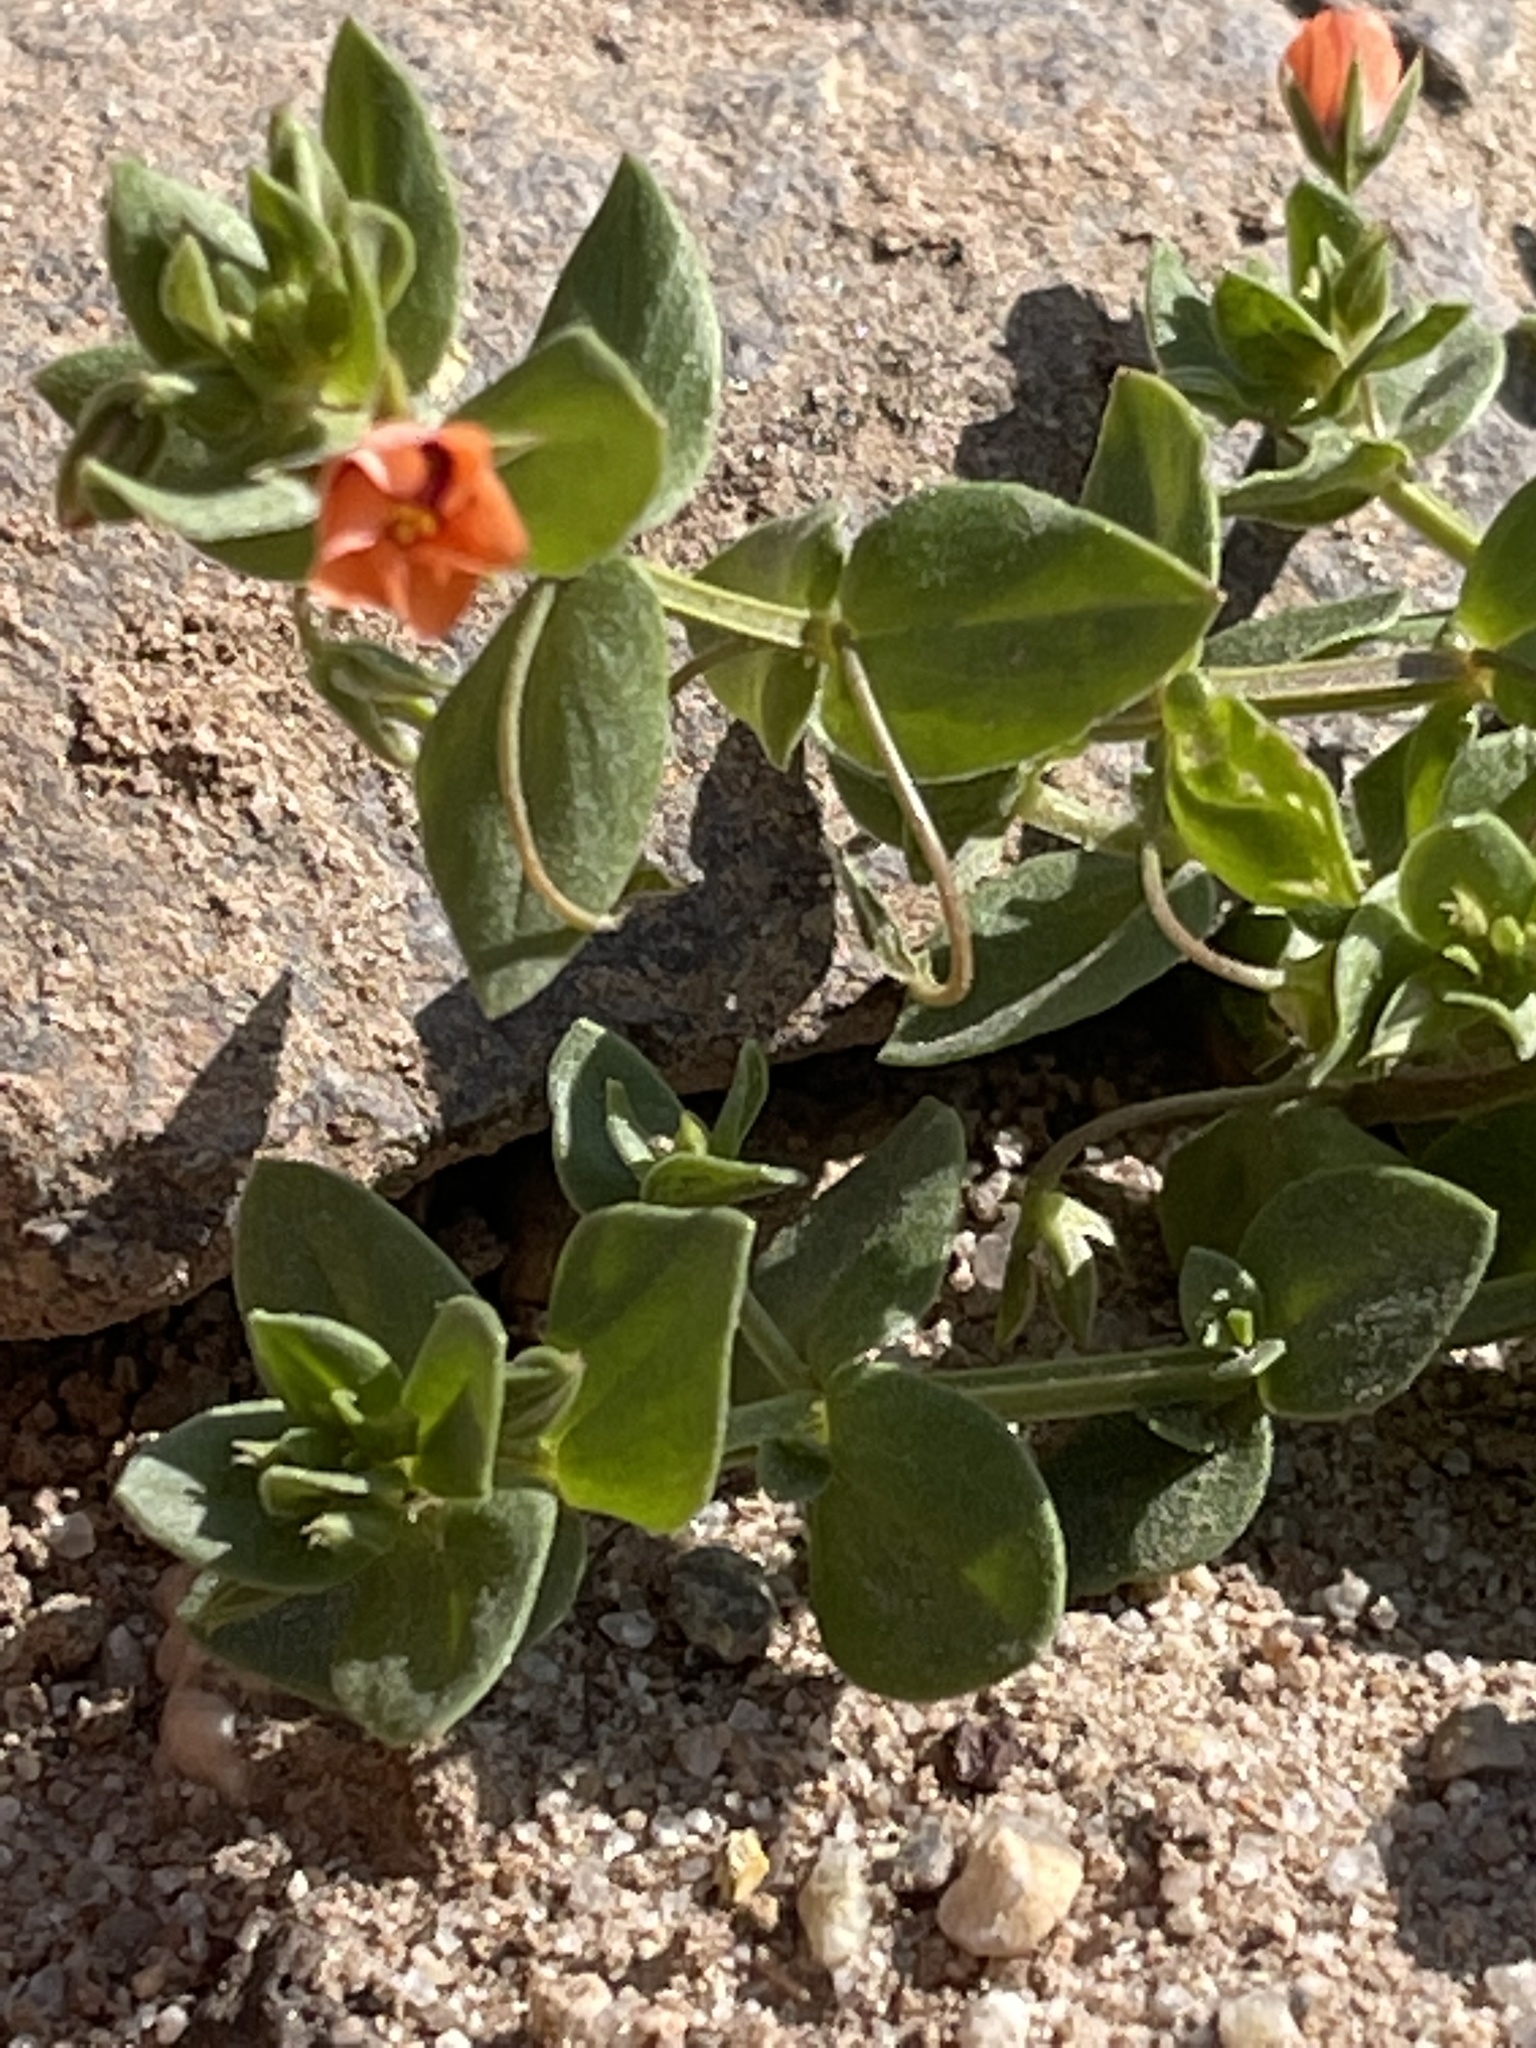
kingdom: Plantae
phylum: Tracheophyta
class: Magnoliopsida
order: Ericales
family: Primulaceae
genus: Lysimachia
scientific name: Lysimachia arvensis
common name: Scarlet pimpernel
